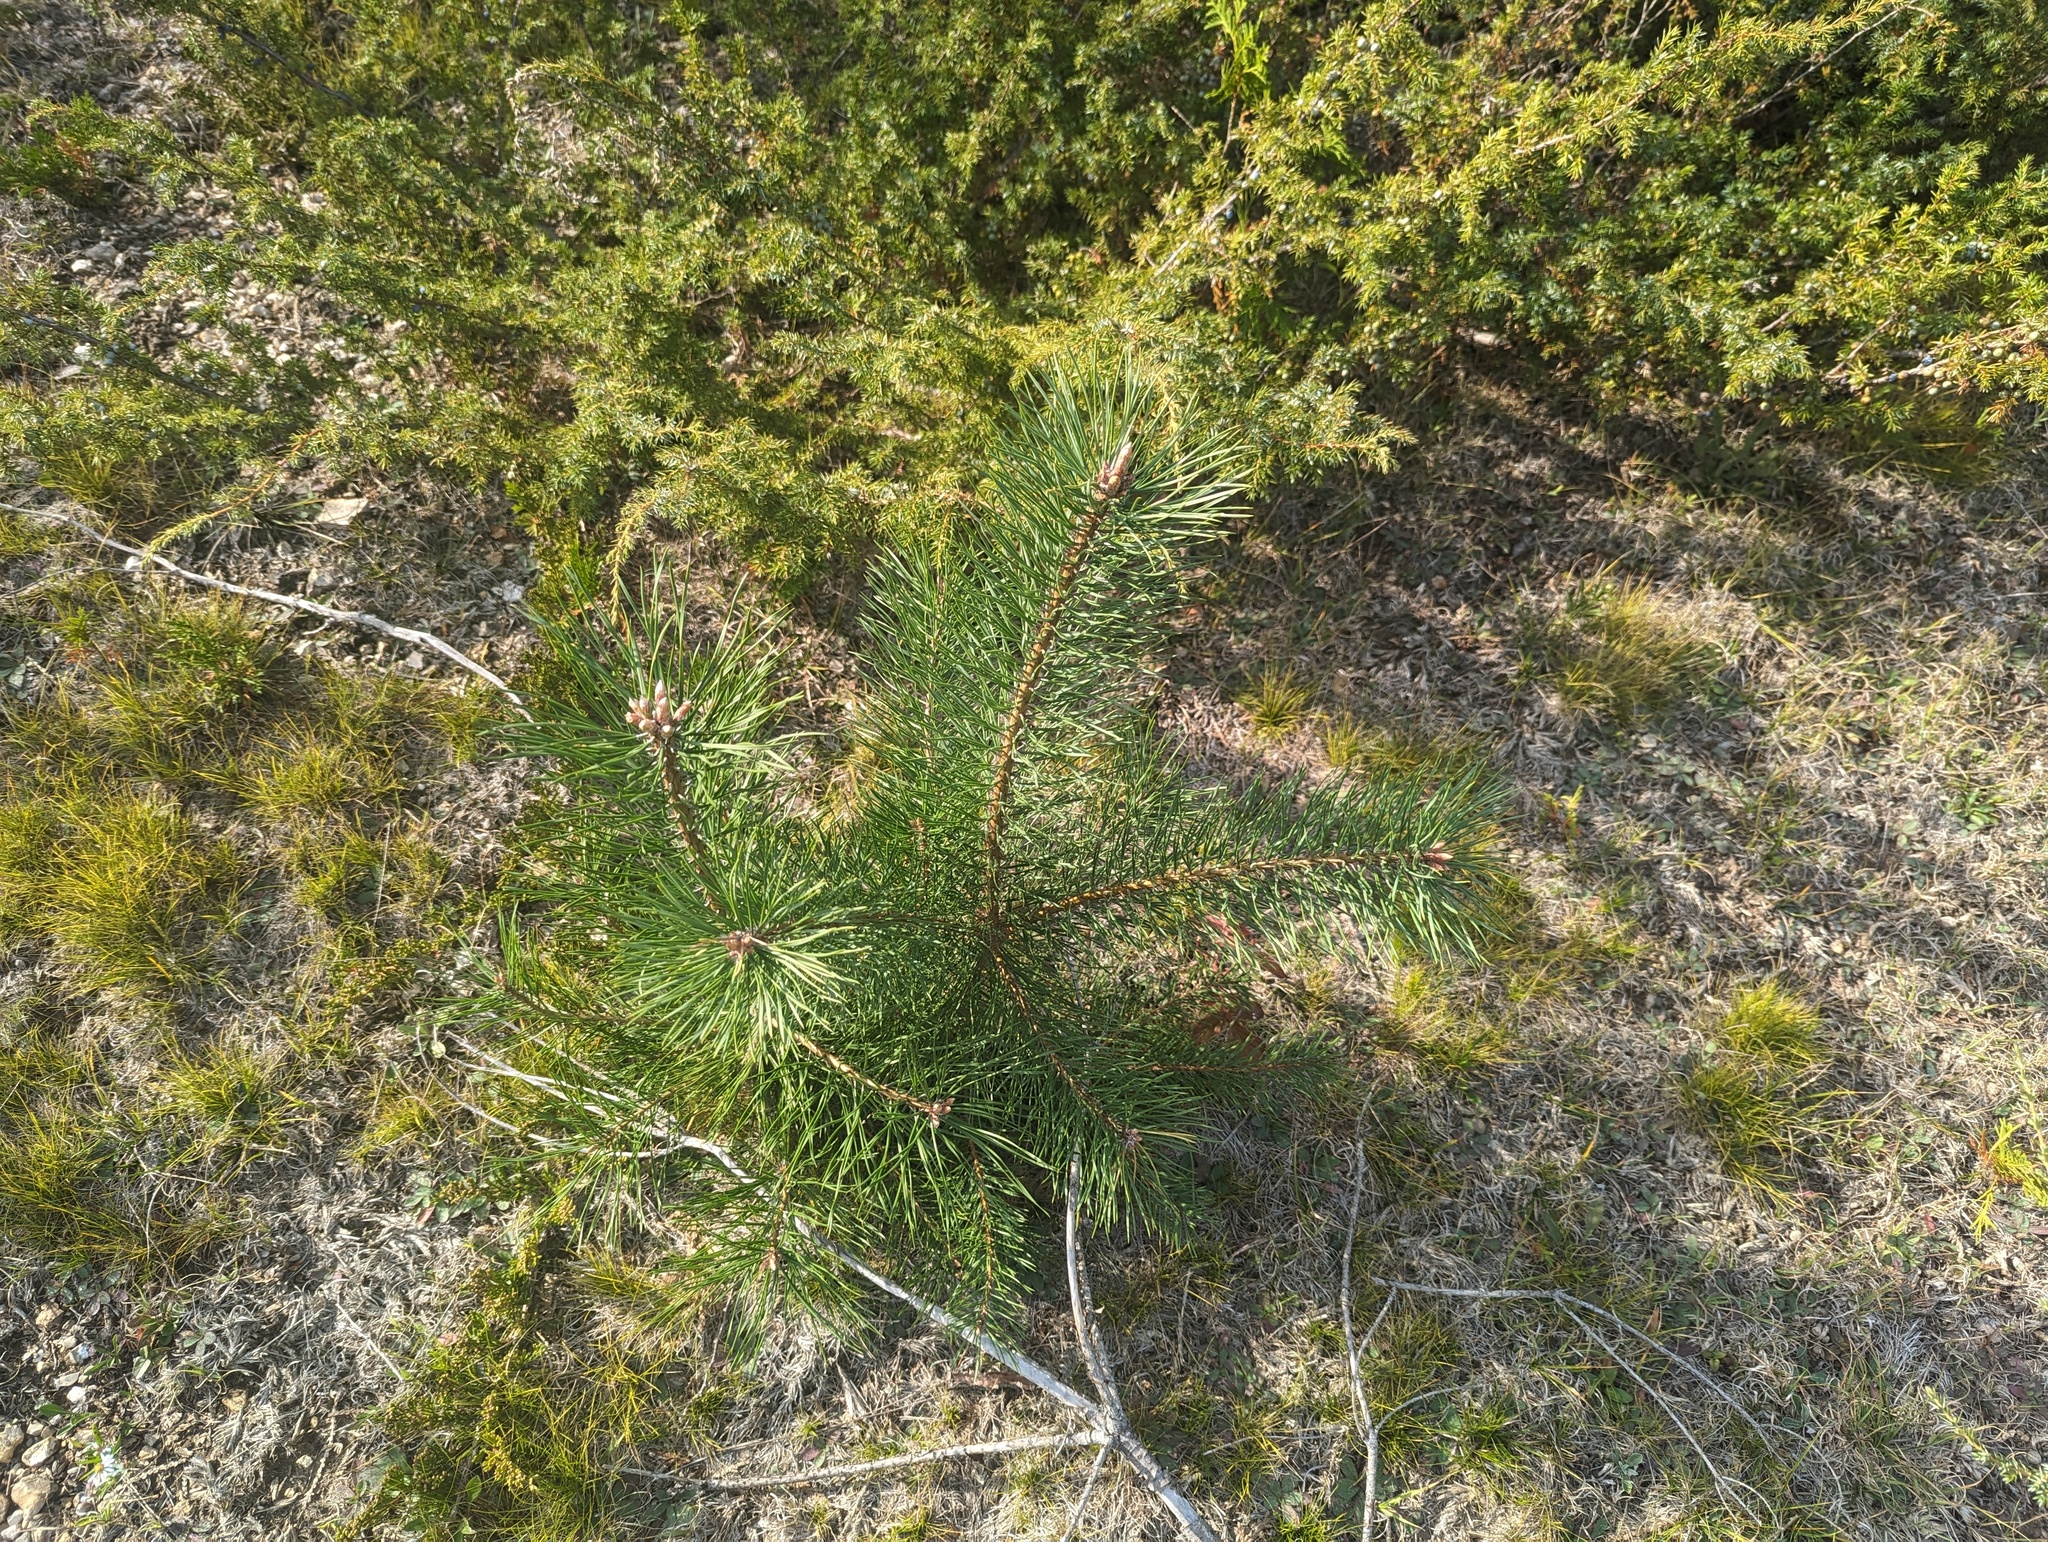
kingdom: Plantae
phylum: Tracheophyta
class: Pinopsida
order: Pinales
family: Pinaceae
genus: Pinus
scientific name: Pinus sylvestris
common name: Scots pine
